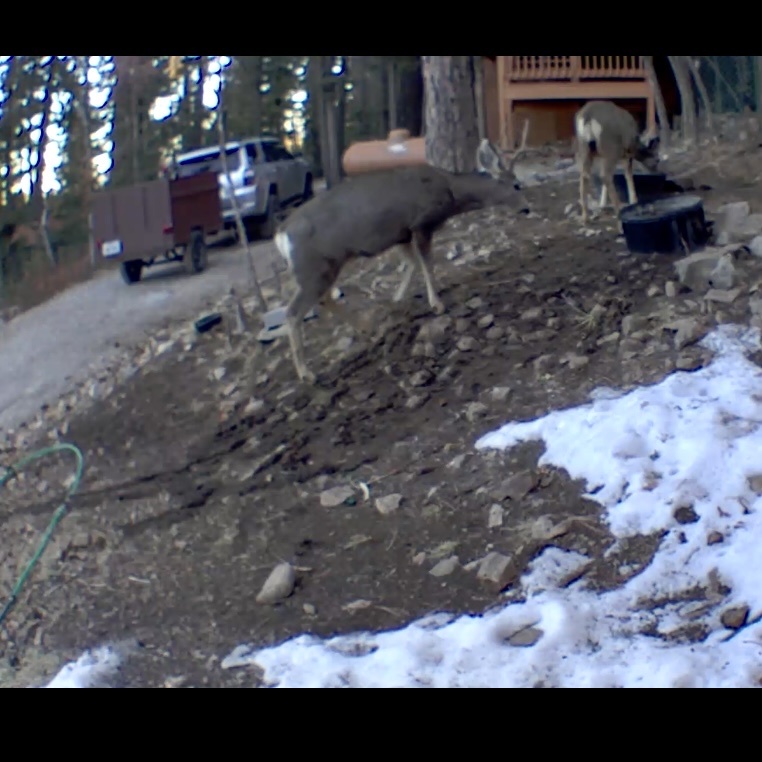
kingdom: Animalia
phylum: Chordata
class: Mammalia
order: Artiodactyla
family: Cervidae
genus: Odocoileus
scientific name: Odocoileus hemionus
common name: Mule deer
